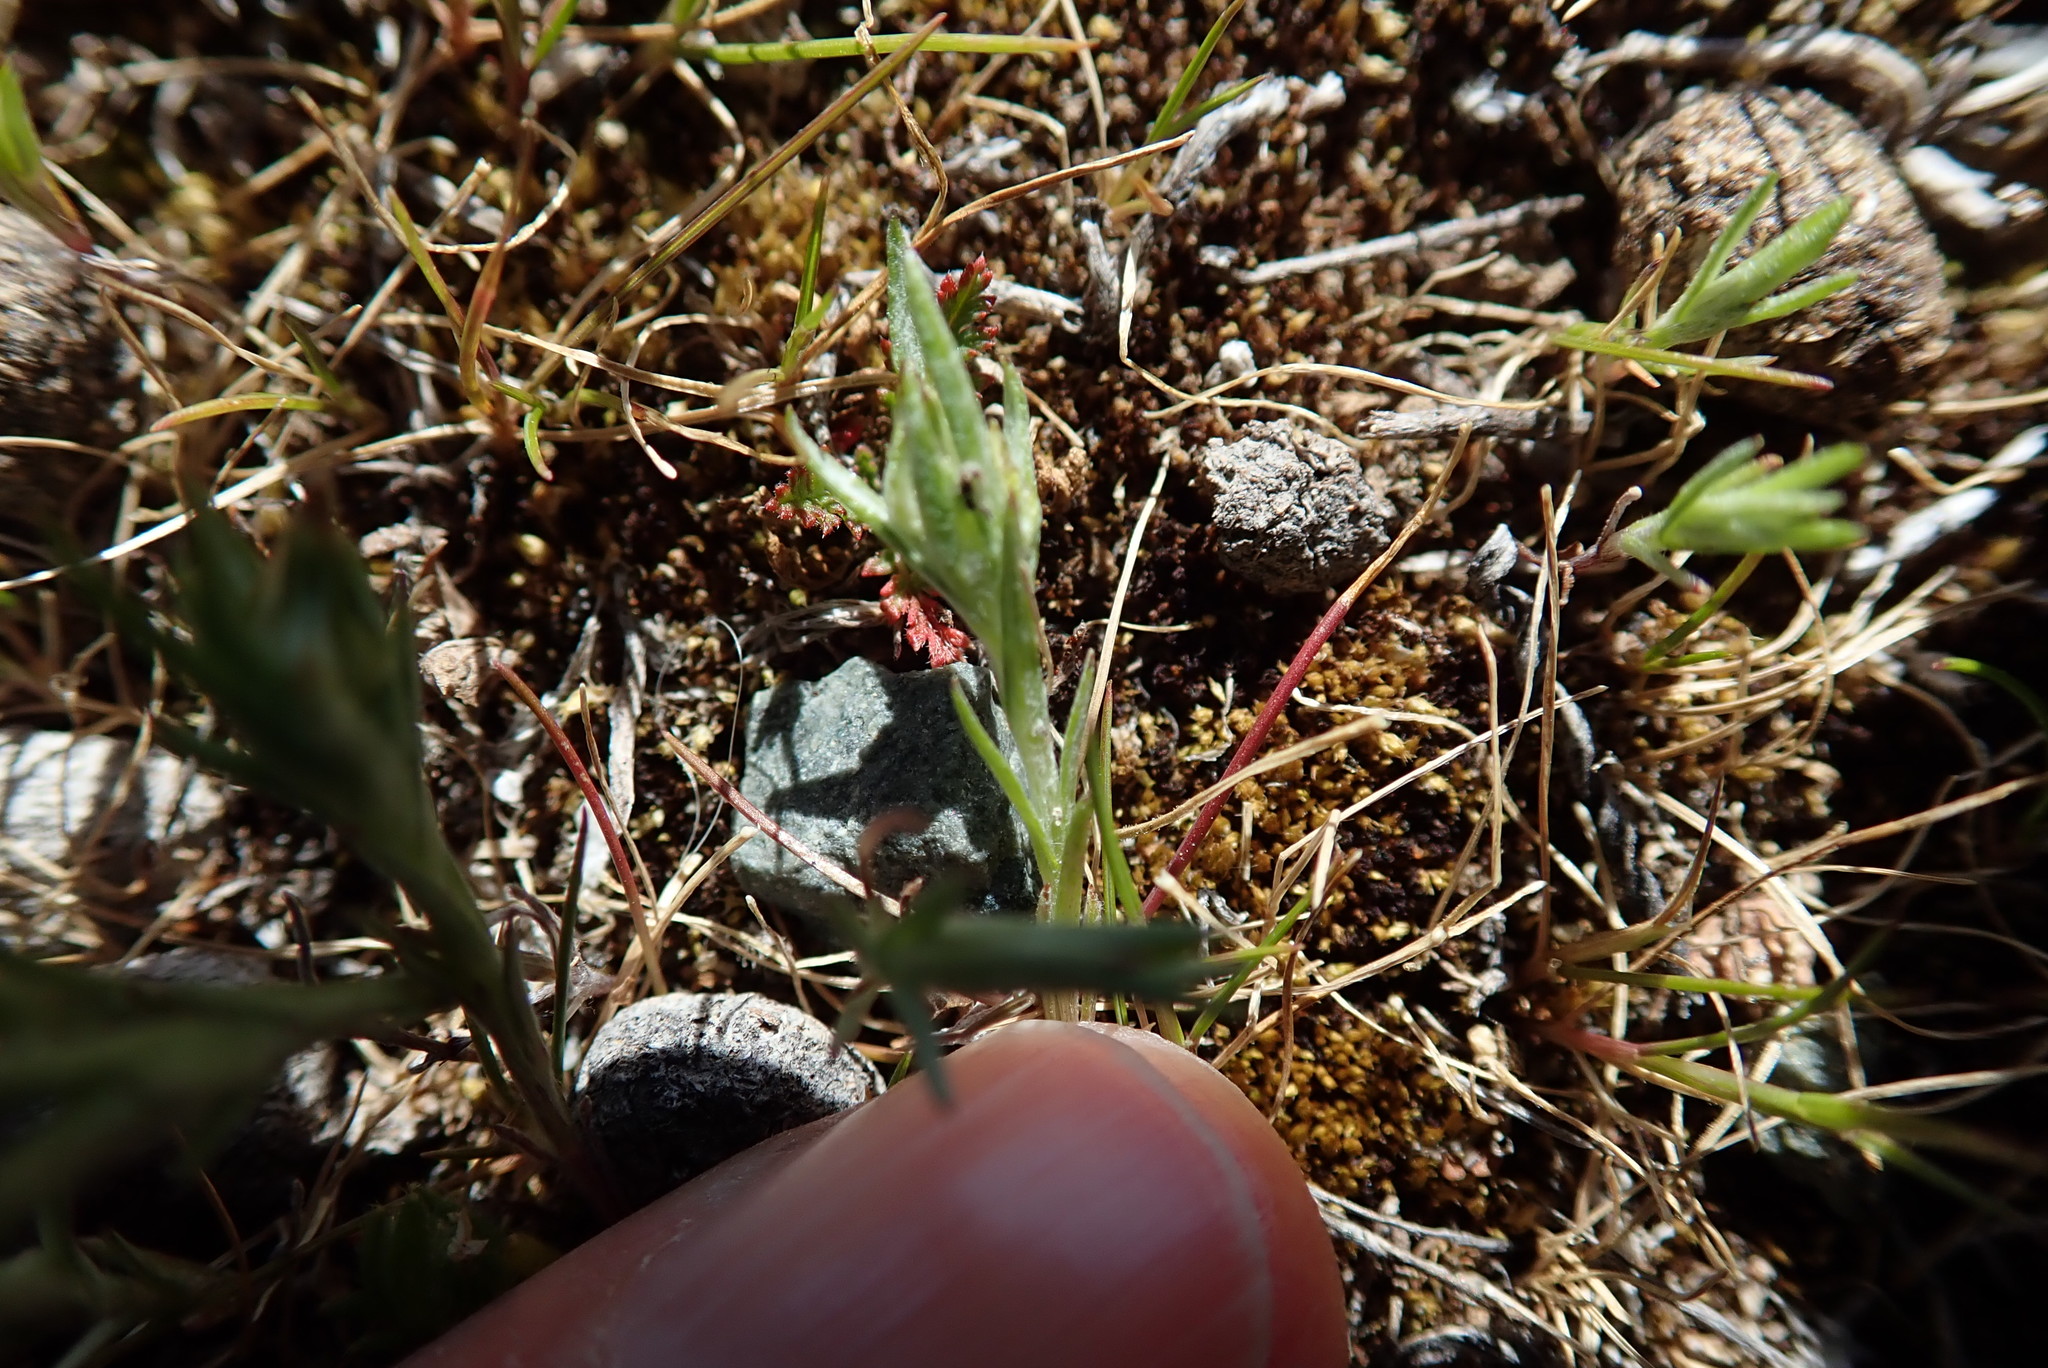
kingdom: Plantae
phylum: Tracheophyta
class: Magnoliopsida
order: Asterales
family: Asteraceae
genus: Logfia
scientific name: Logfia gallica
